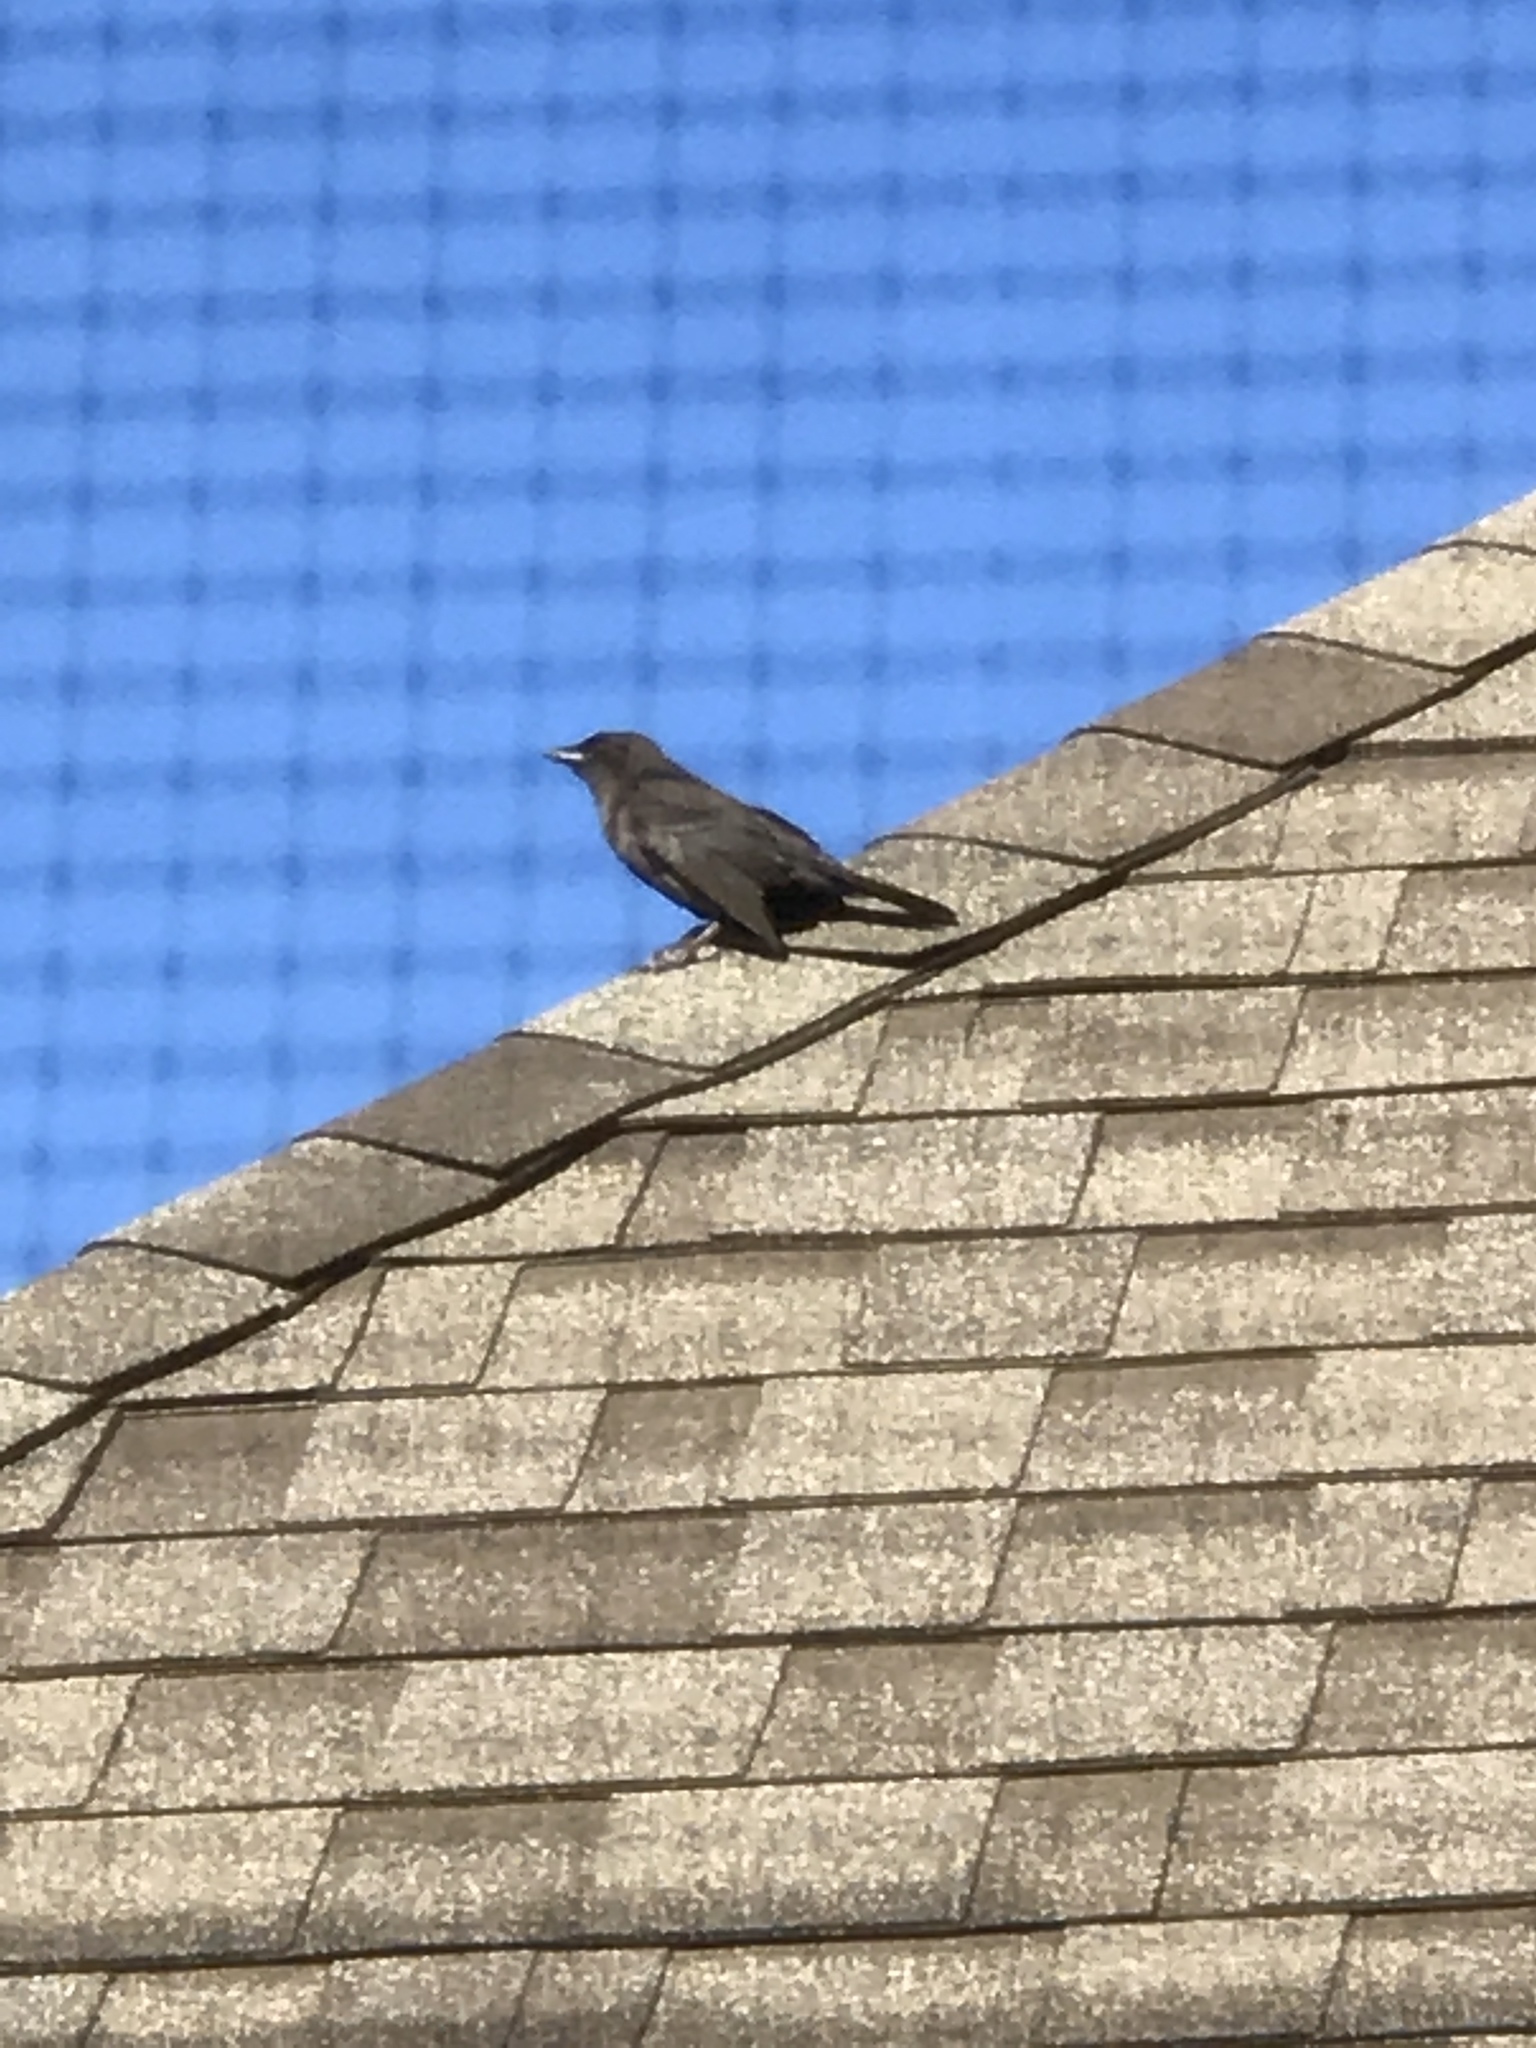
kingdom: Animalia
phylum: Chordata
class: Aves
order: Passeriformes
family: Corvidae
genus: Corvus
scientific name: Corvus brachyrhynchos
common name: American crow
